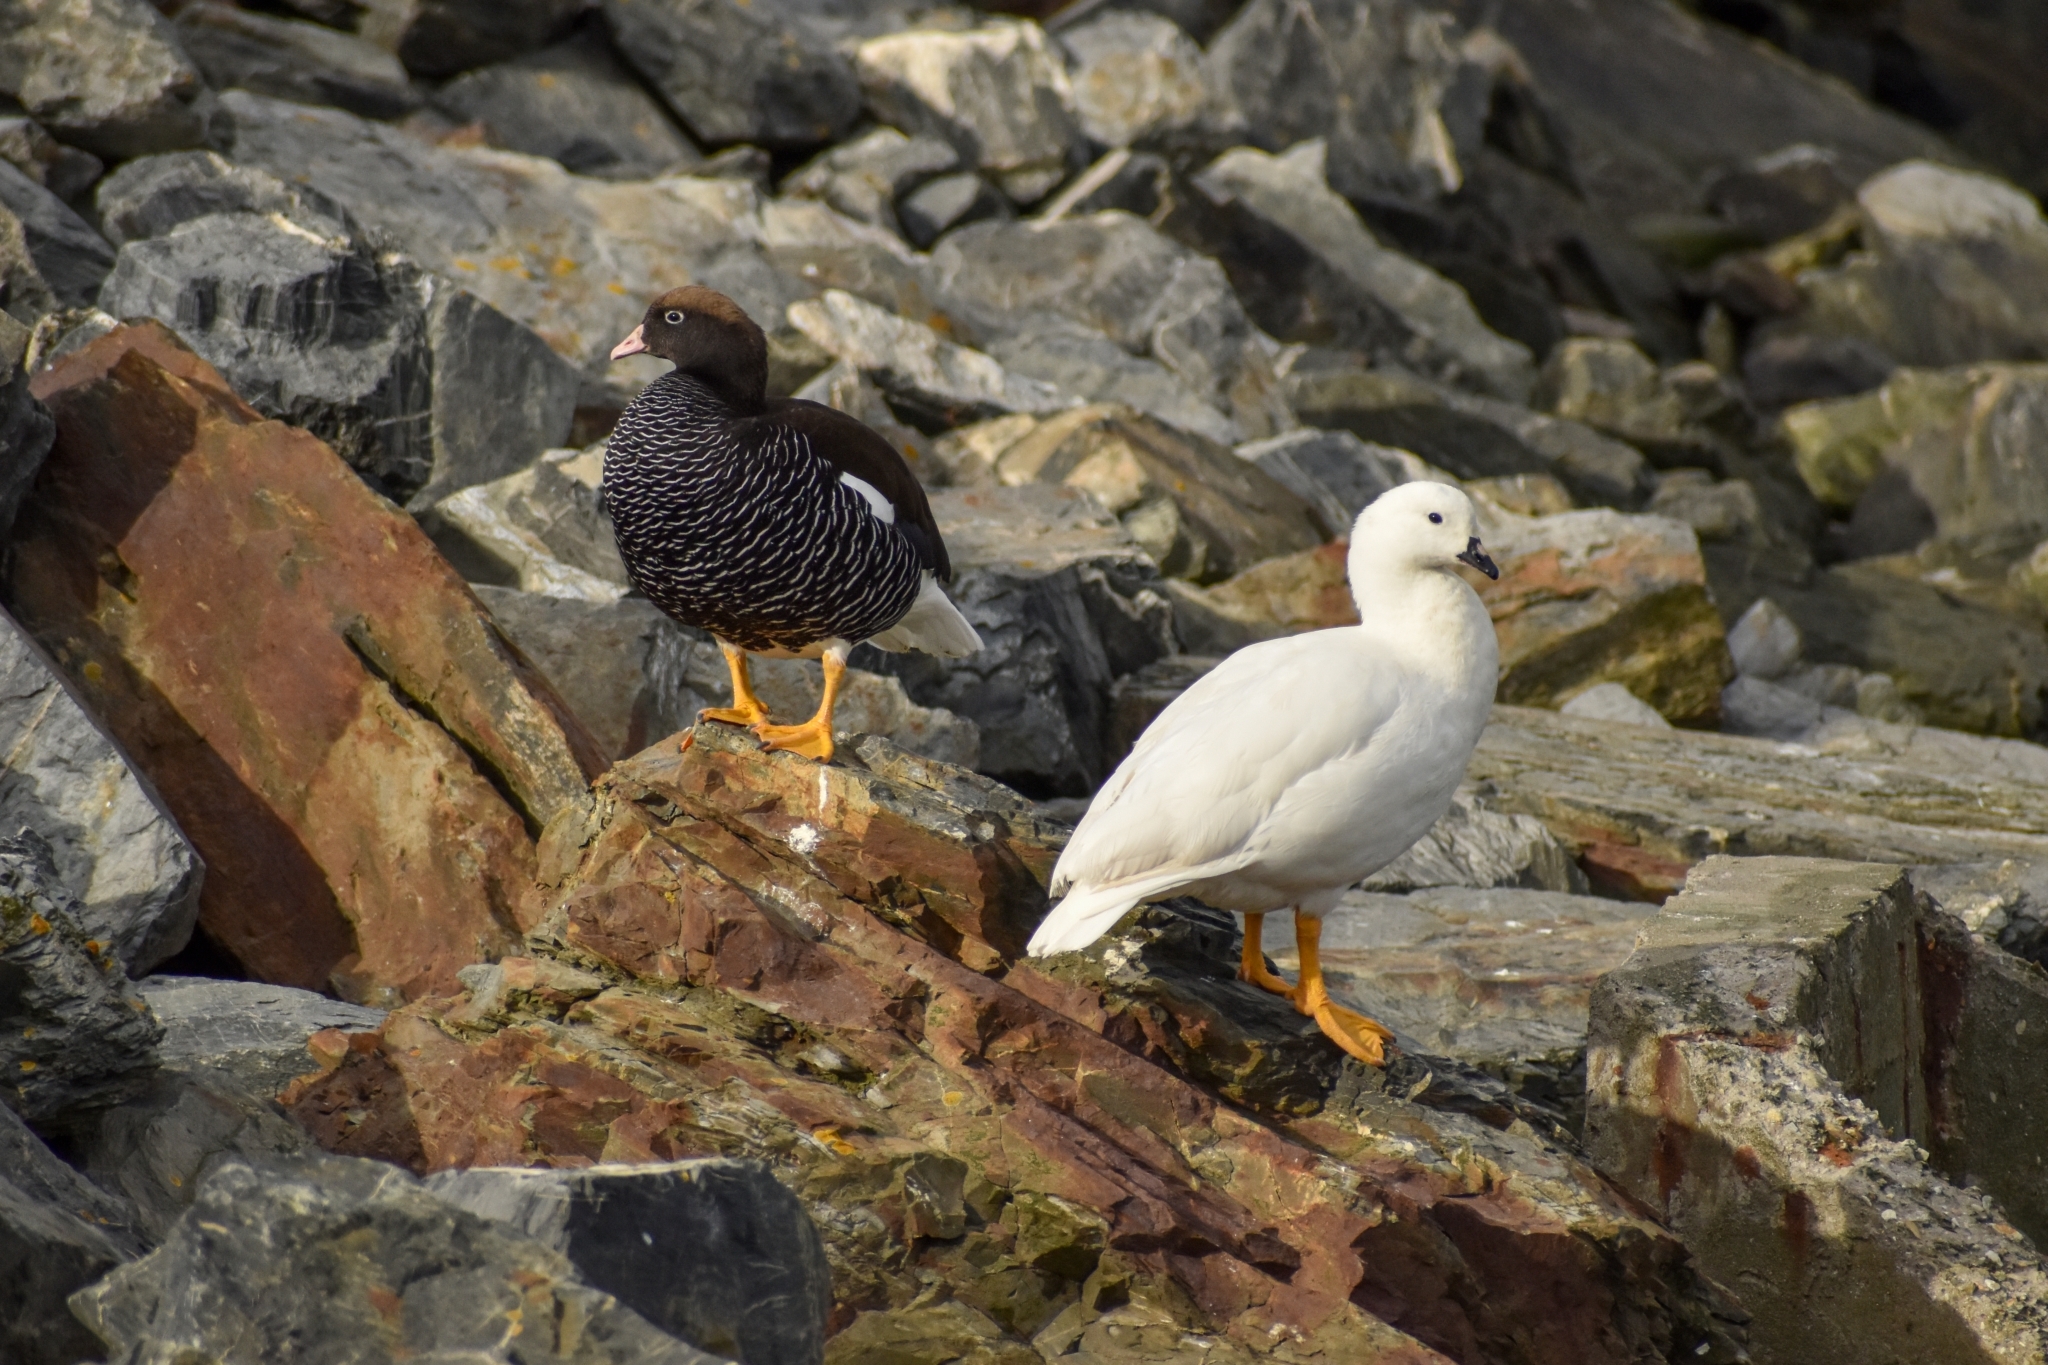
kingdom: Animalia
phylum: Chordata
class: Aves
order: Anseriformes
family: Anatidae
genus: Chloephaga
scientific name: Chloephaga hybrida
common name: Kelp goose
